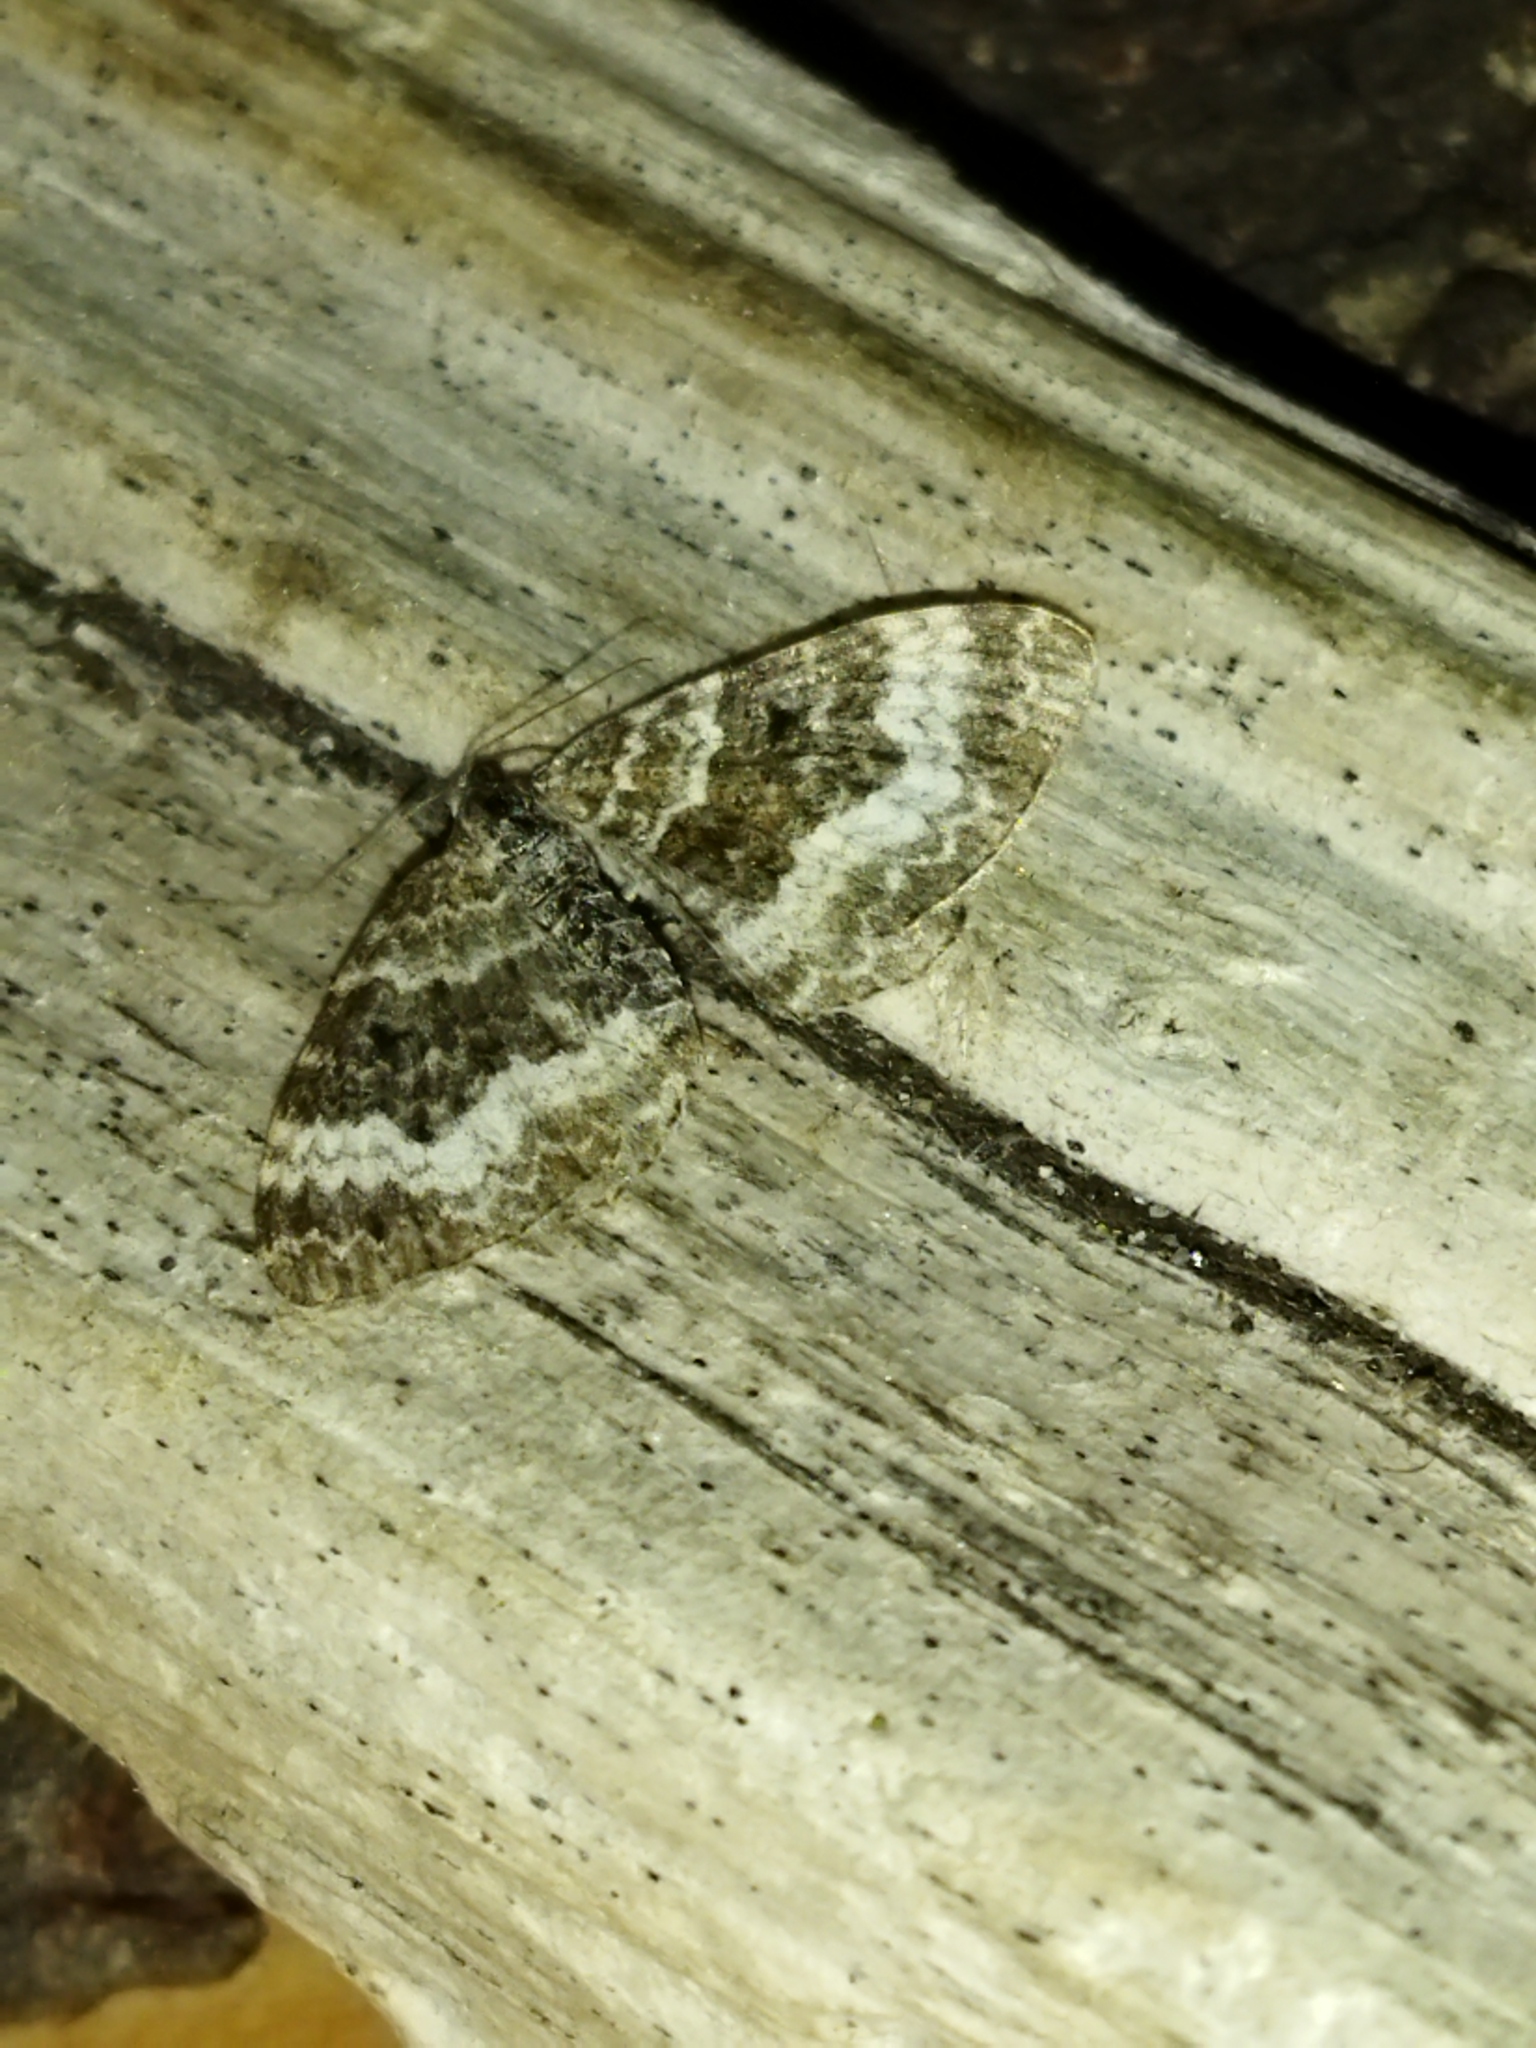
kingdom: Animalia
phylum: Arthropoda
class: Insecta
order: Lepidoptera
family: Geometridae
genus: Epirrhoe
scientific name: Epirrhoe alternata
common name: Common carpet
